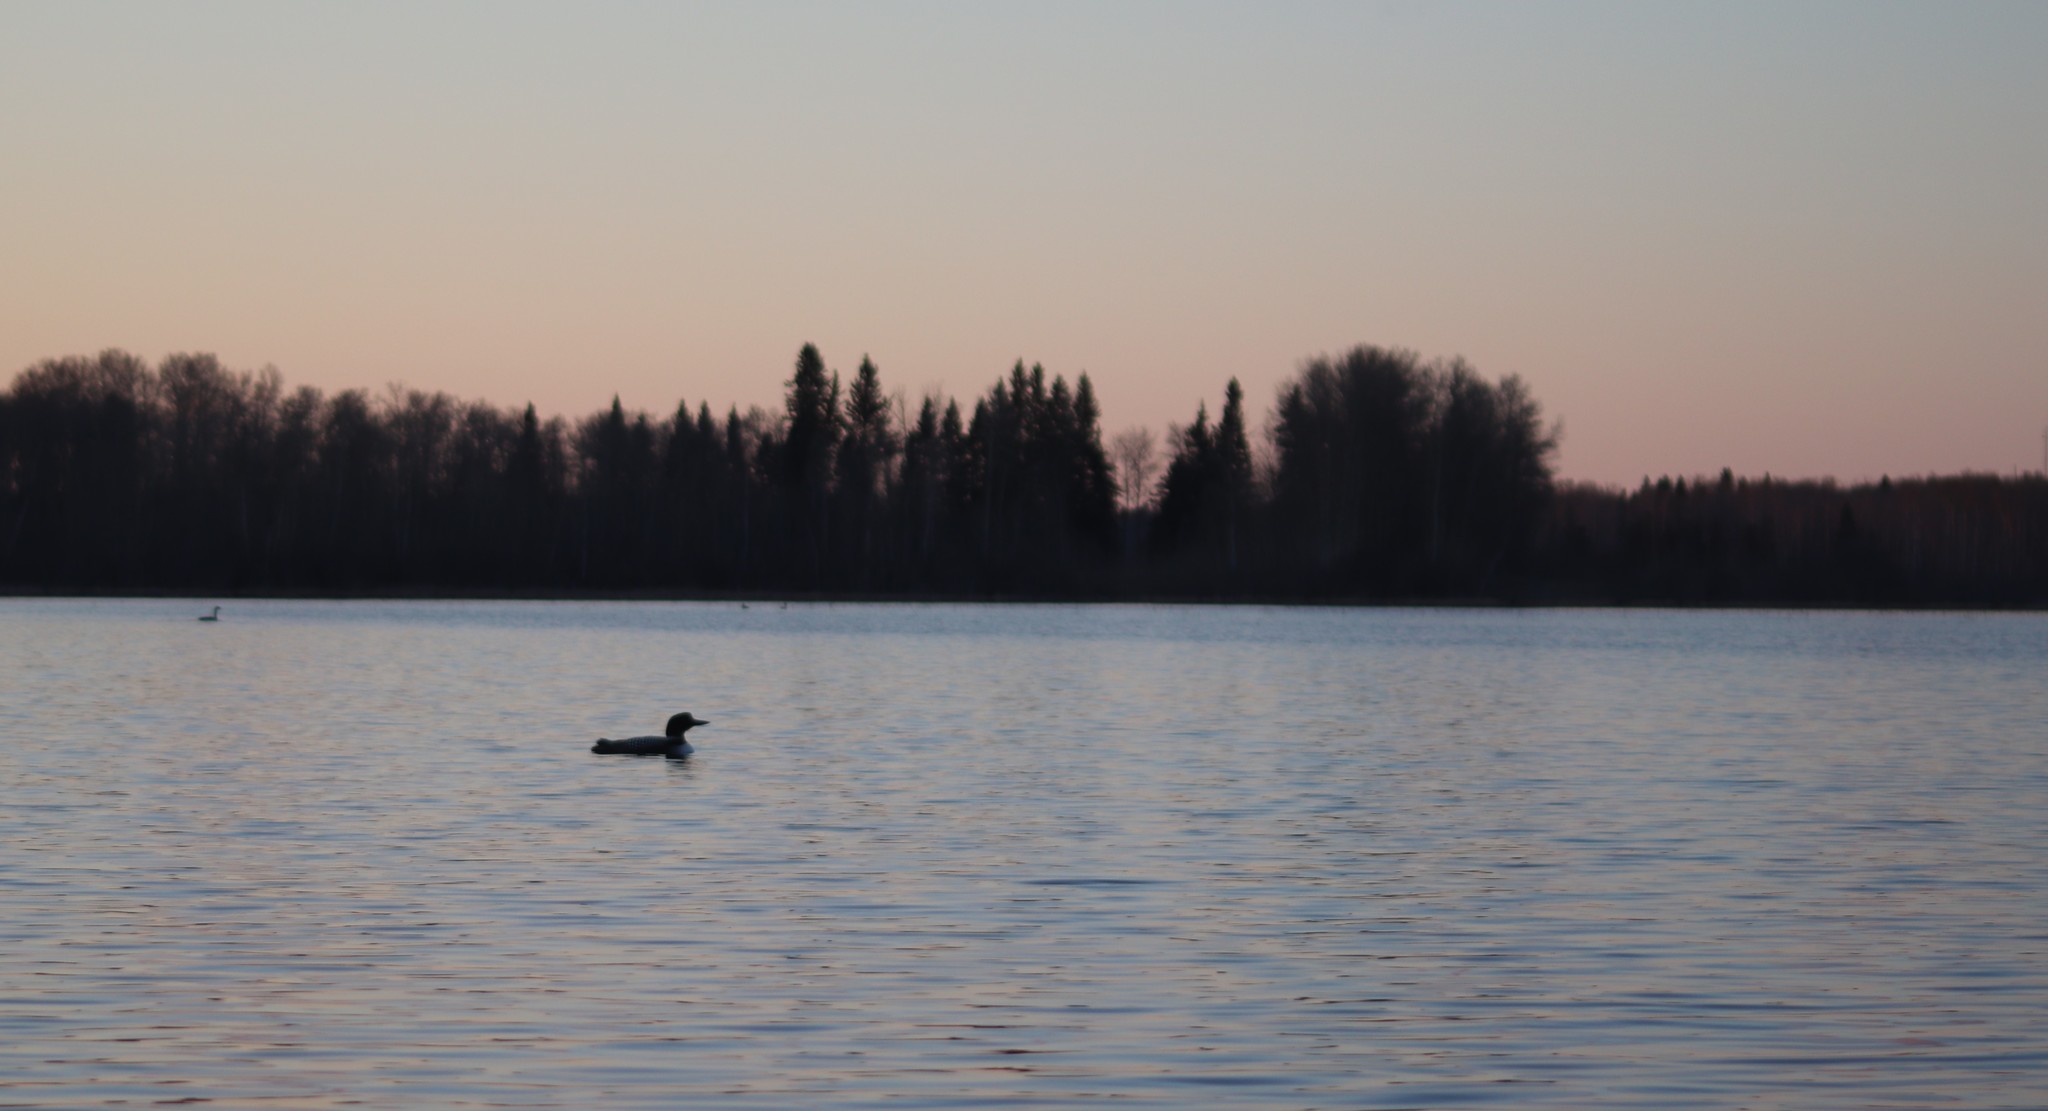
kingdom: Animalia
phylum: Chordata
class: Aves
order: Gaviiformes
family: Gaviidae
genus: Gavia
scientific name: Gavia immer
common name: Common loon
